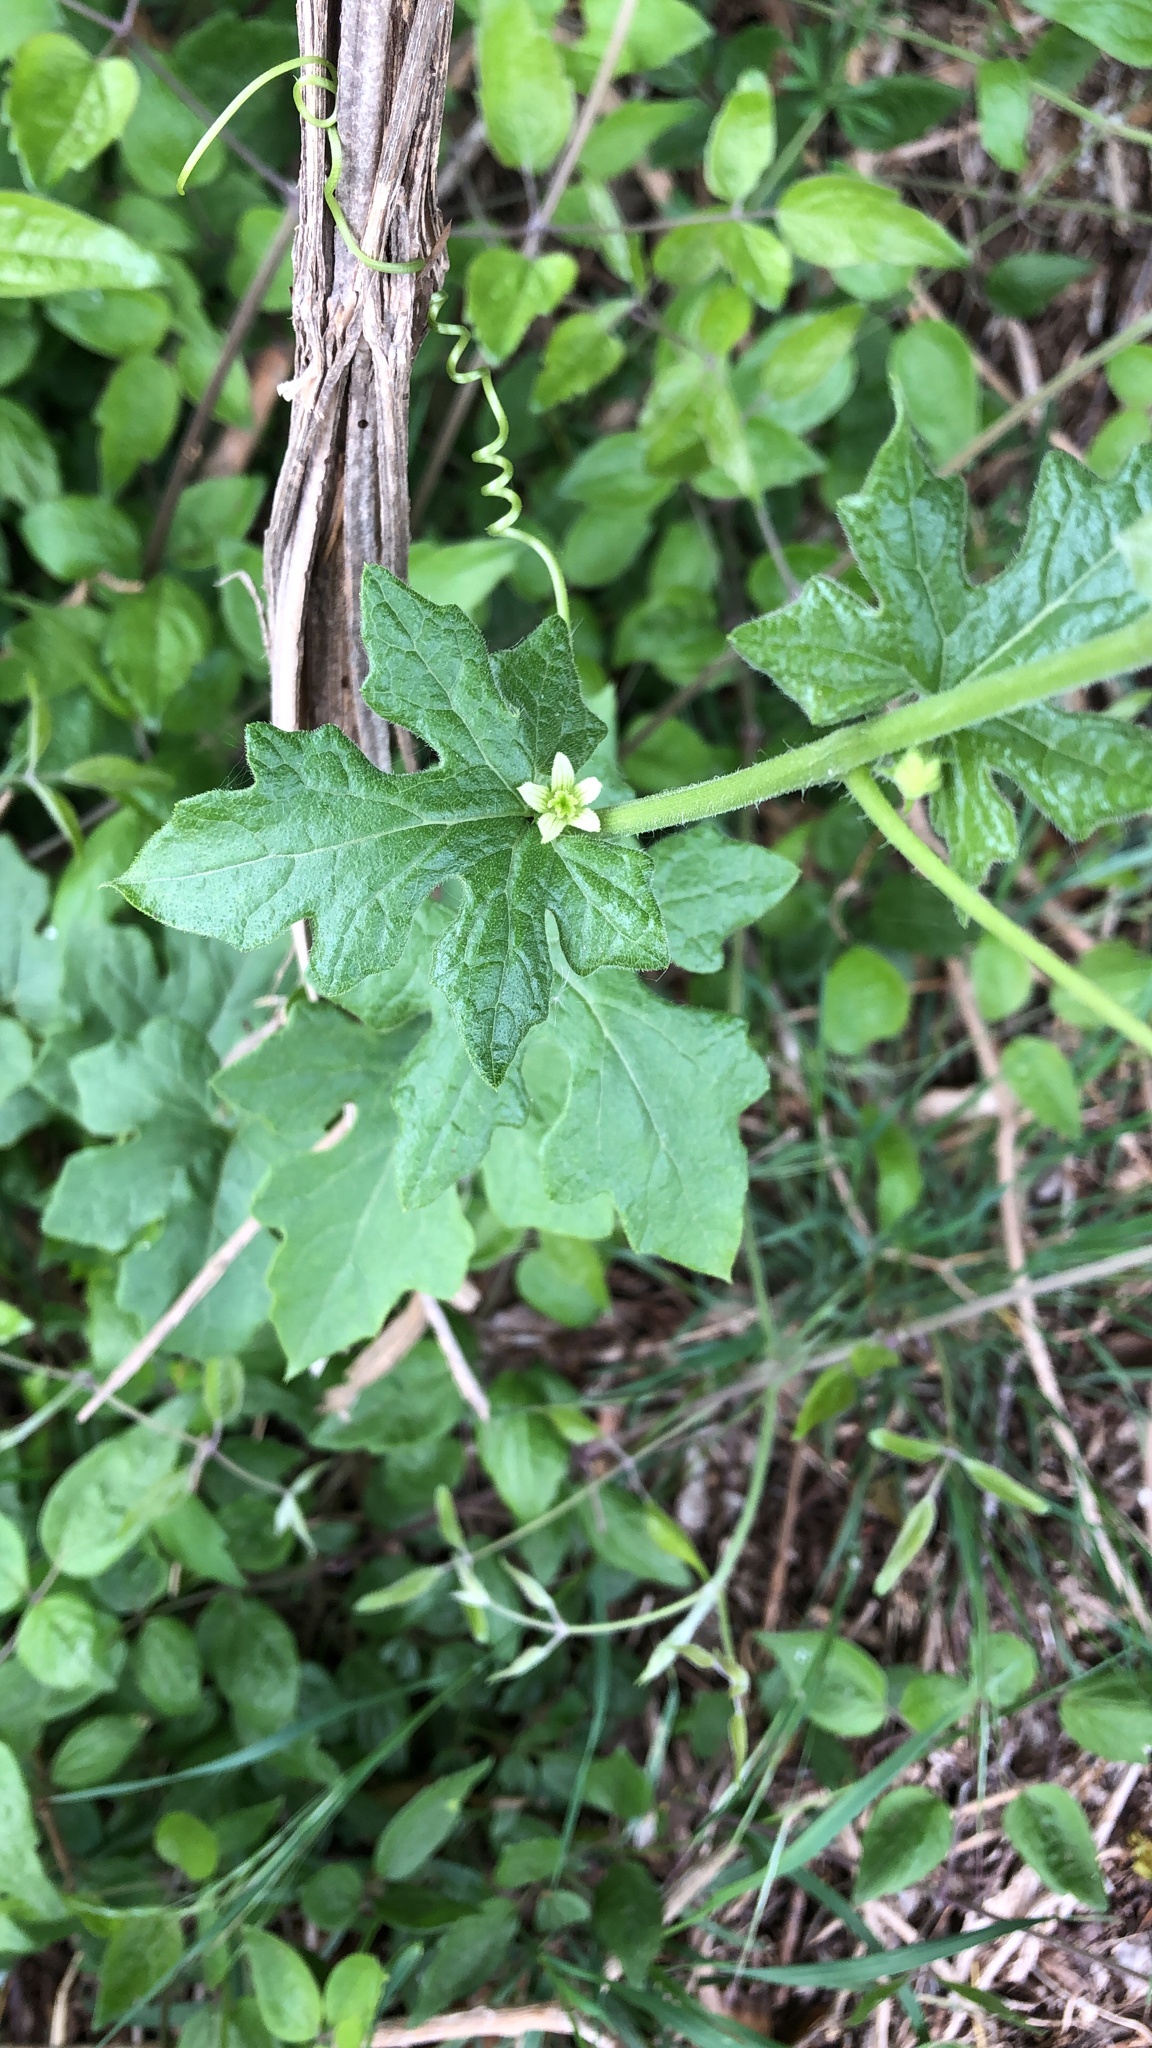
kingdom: Plantae
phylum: Tracheophyta
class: Magnoliopsida
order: Cucurbitales
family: Cucurbitaceae
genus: Bryonia
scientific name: Bryonia cretica
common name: Cretan bryony
